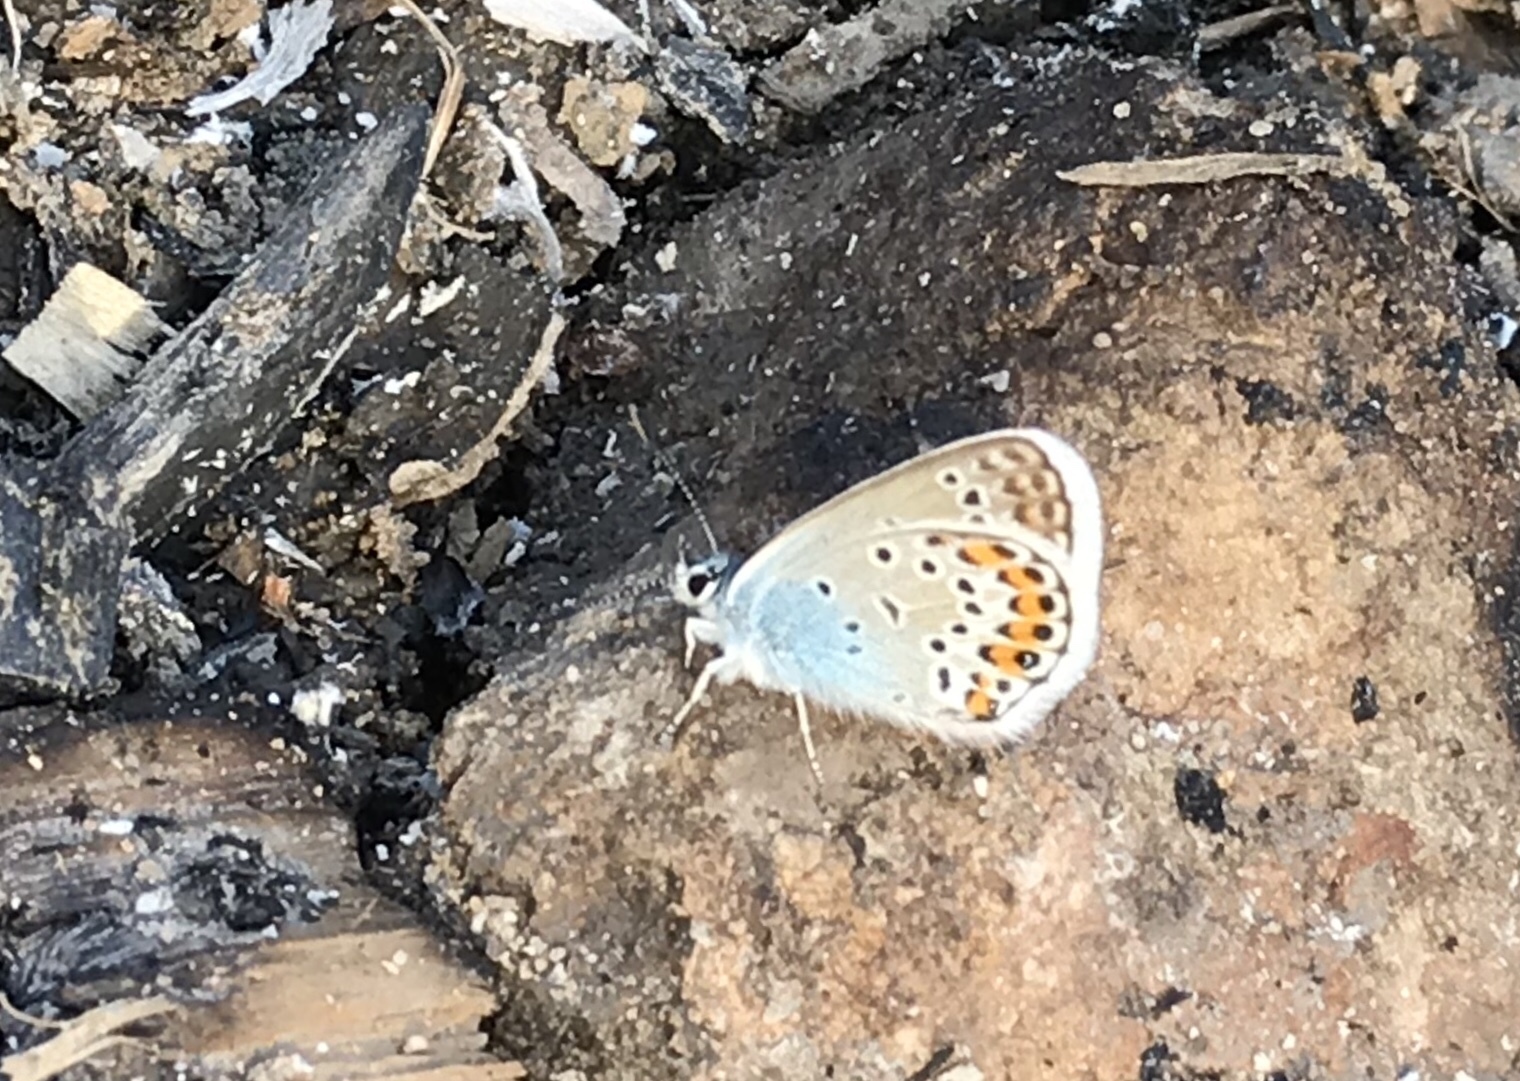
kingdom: Animalia
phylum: Arthropoda
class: Insecta
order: Lepidoptera
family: Lycaenidae
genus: Plebejus
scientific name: Plebejus argus
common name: Silver-studded blue
